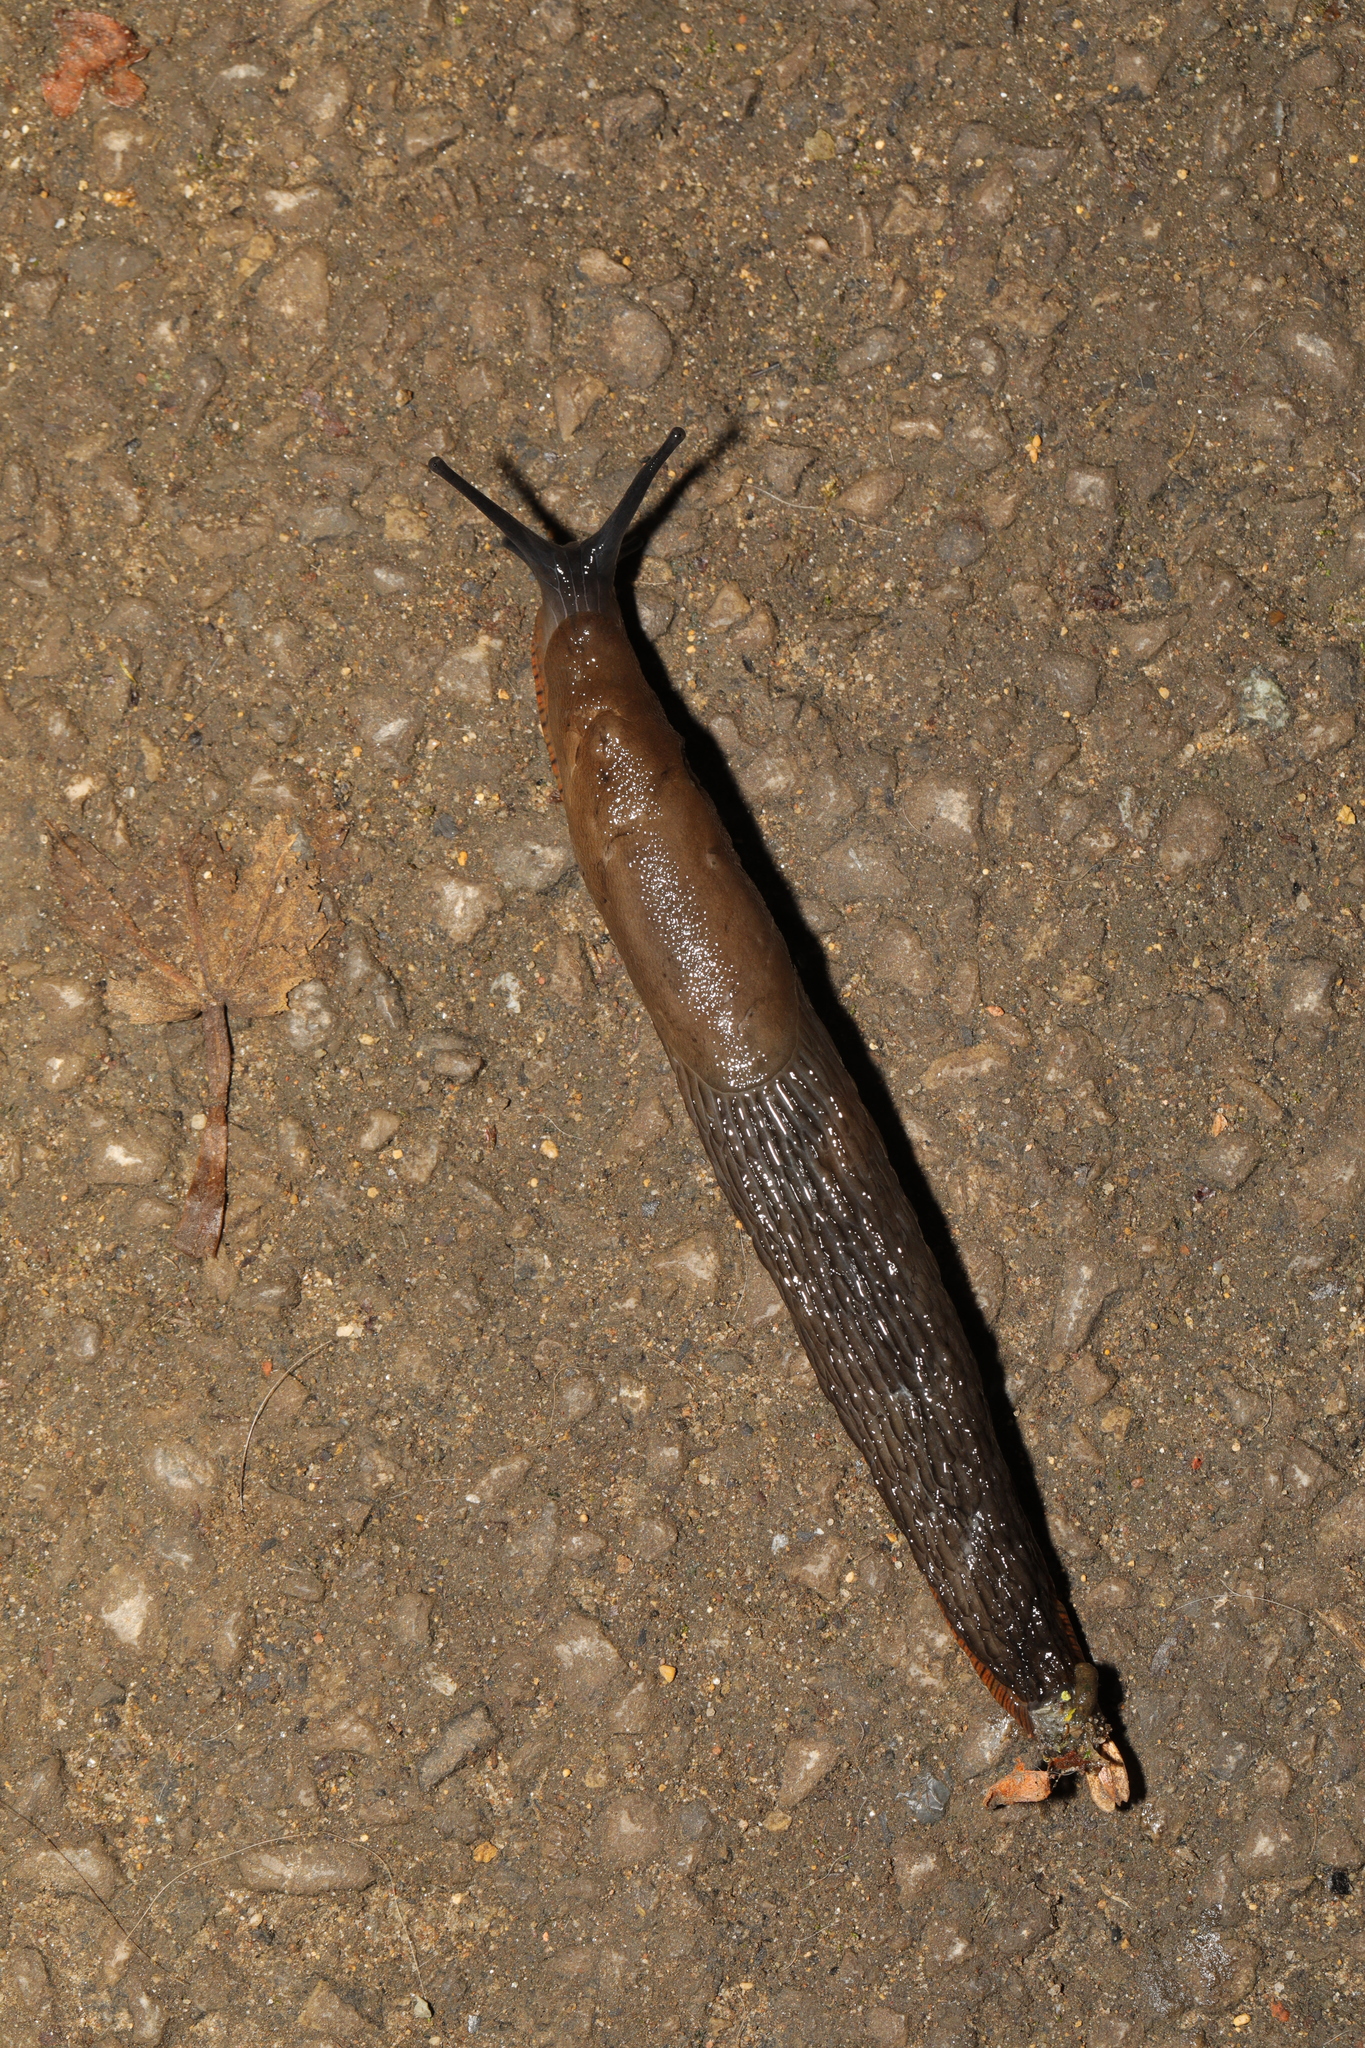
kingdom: Animalia
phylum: Mollusca
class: Gastropoda
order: Stylommatophora
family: Arionidae
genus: Arion
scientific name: Arion rufus
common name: Chocolate arion
